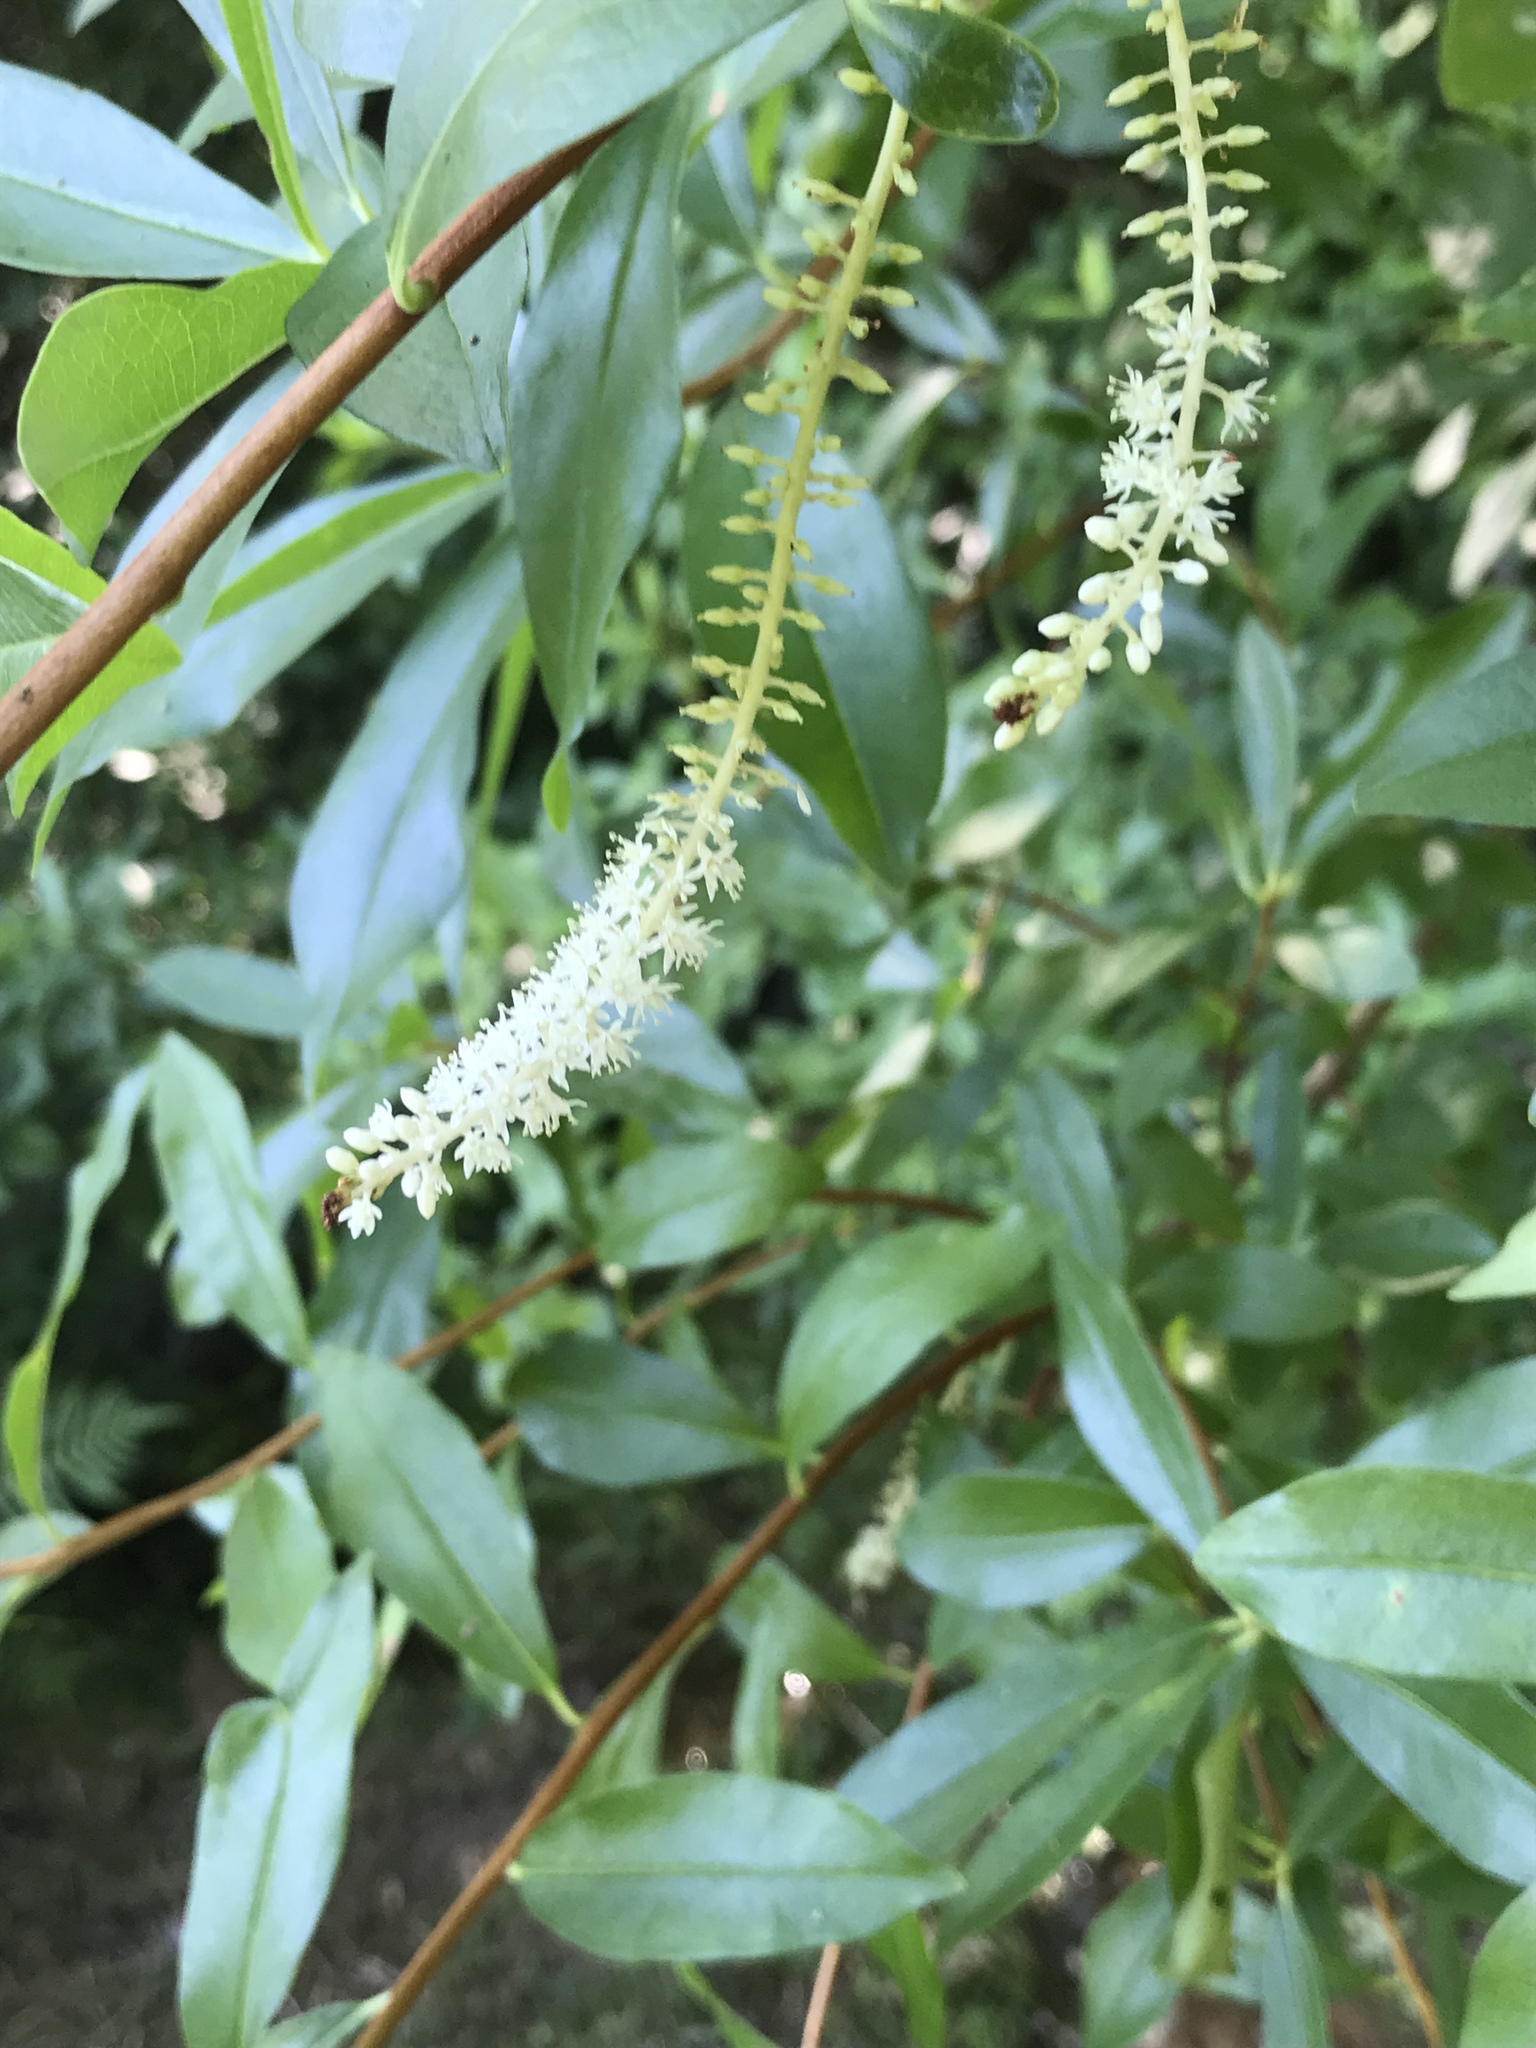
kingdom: Plantae
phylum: Tracheophyta
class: Magnoliopsida
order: Ericales
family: Cyrillaceae
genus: Cyrilla
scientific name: Cyrilla racemiflora
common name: Black titi
